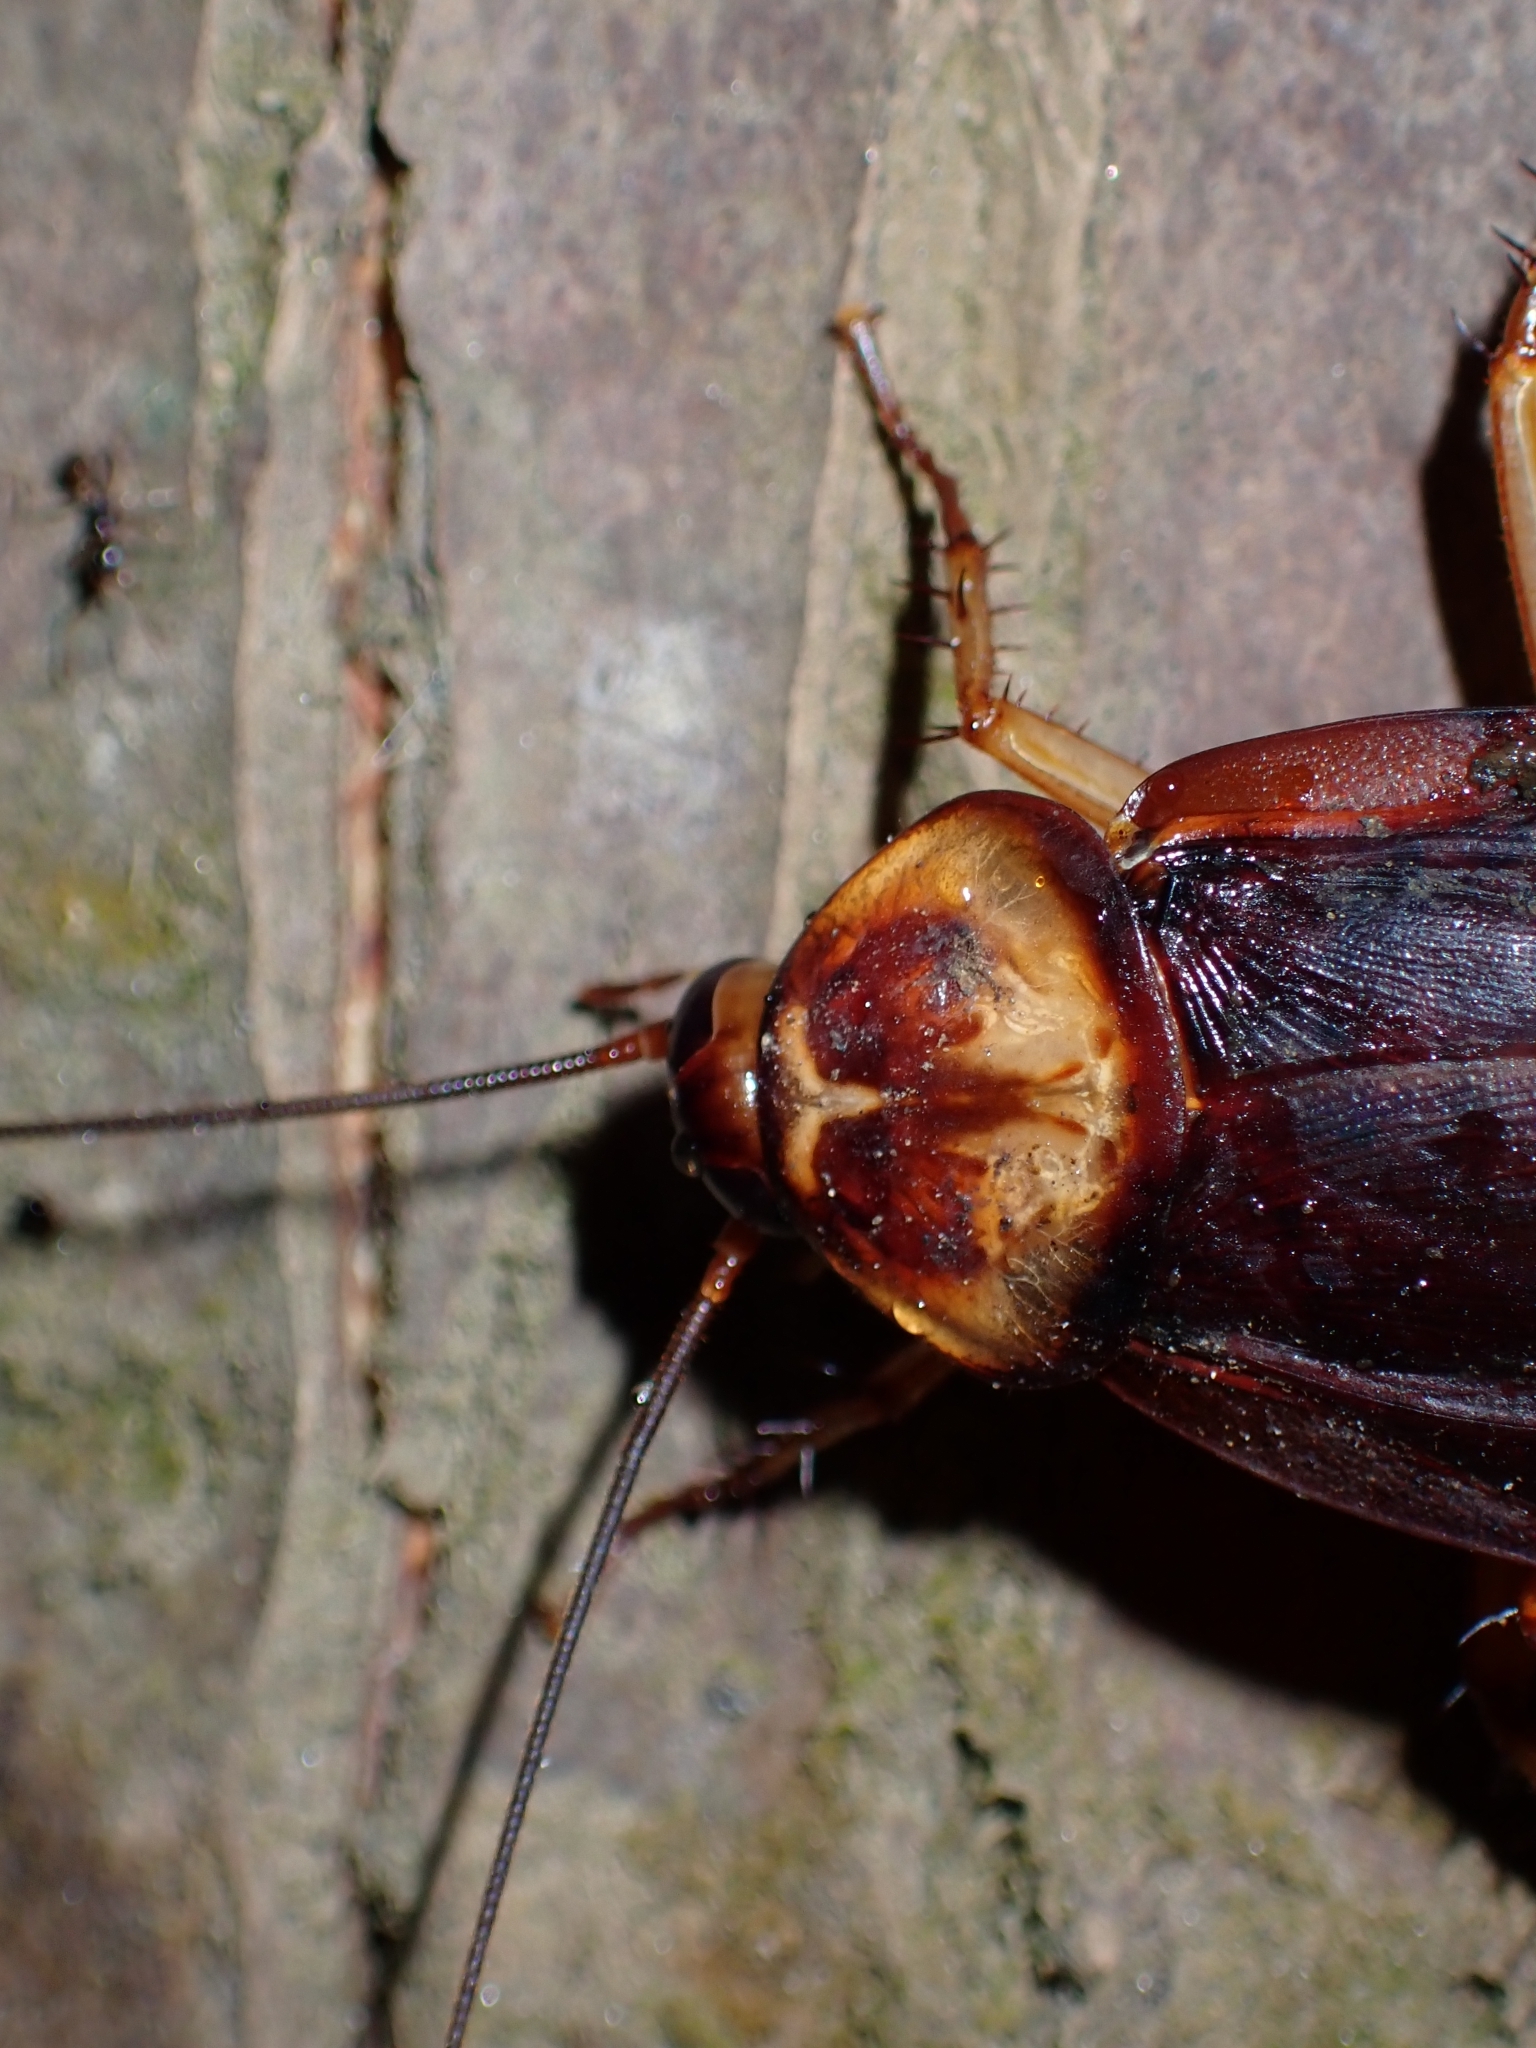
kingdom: Animalia
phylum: Arthropoda
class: Insecta
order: Blattodea
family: Blattidae
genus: Periplaneta
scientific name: Periplaneta americana
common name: American cockroach
